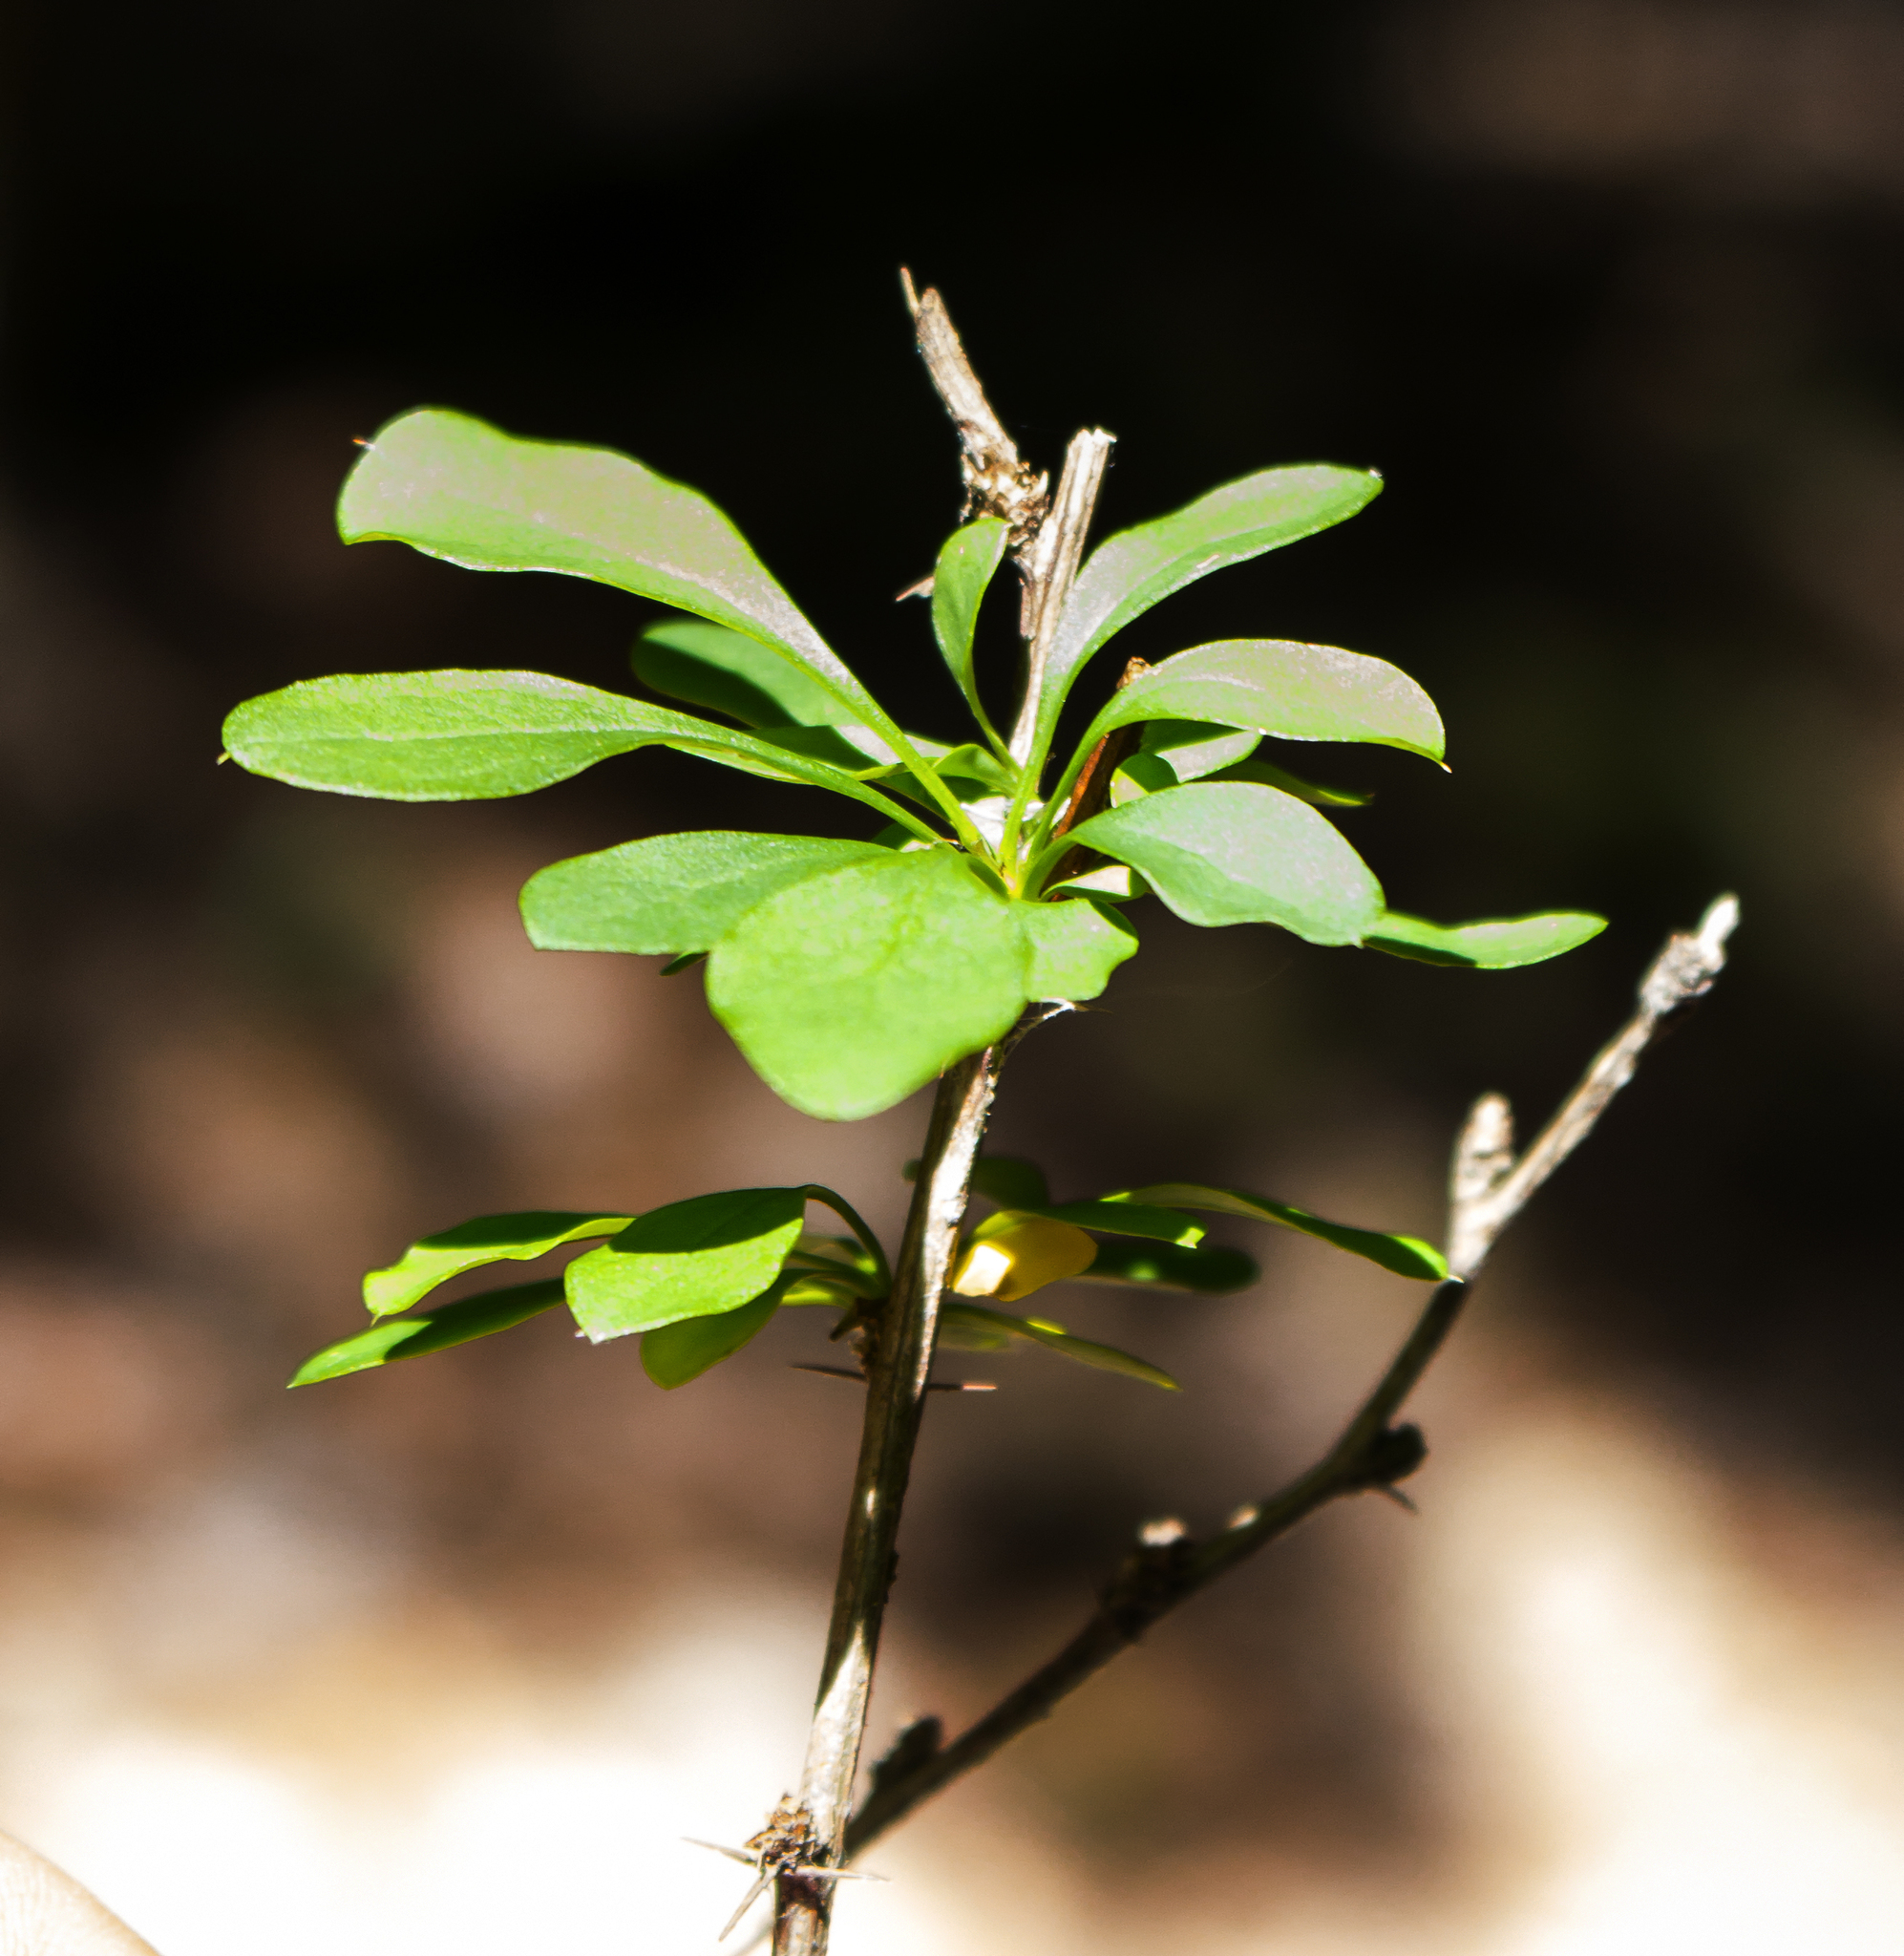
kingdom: Plantae
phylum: Tracheophyta
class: Magnoliopsida
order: Ranunculales
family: Berberidaceae
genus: Berberis
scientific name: Berberis thunbergii
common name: Japanese barberry
